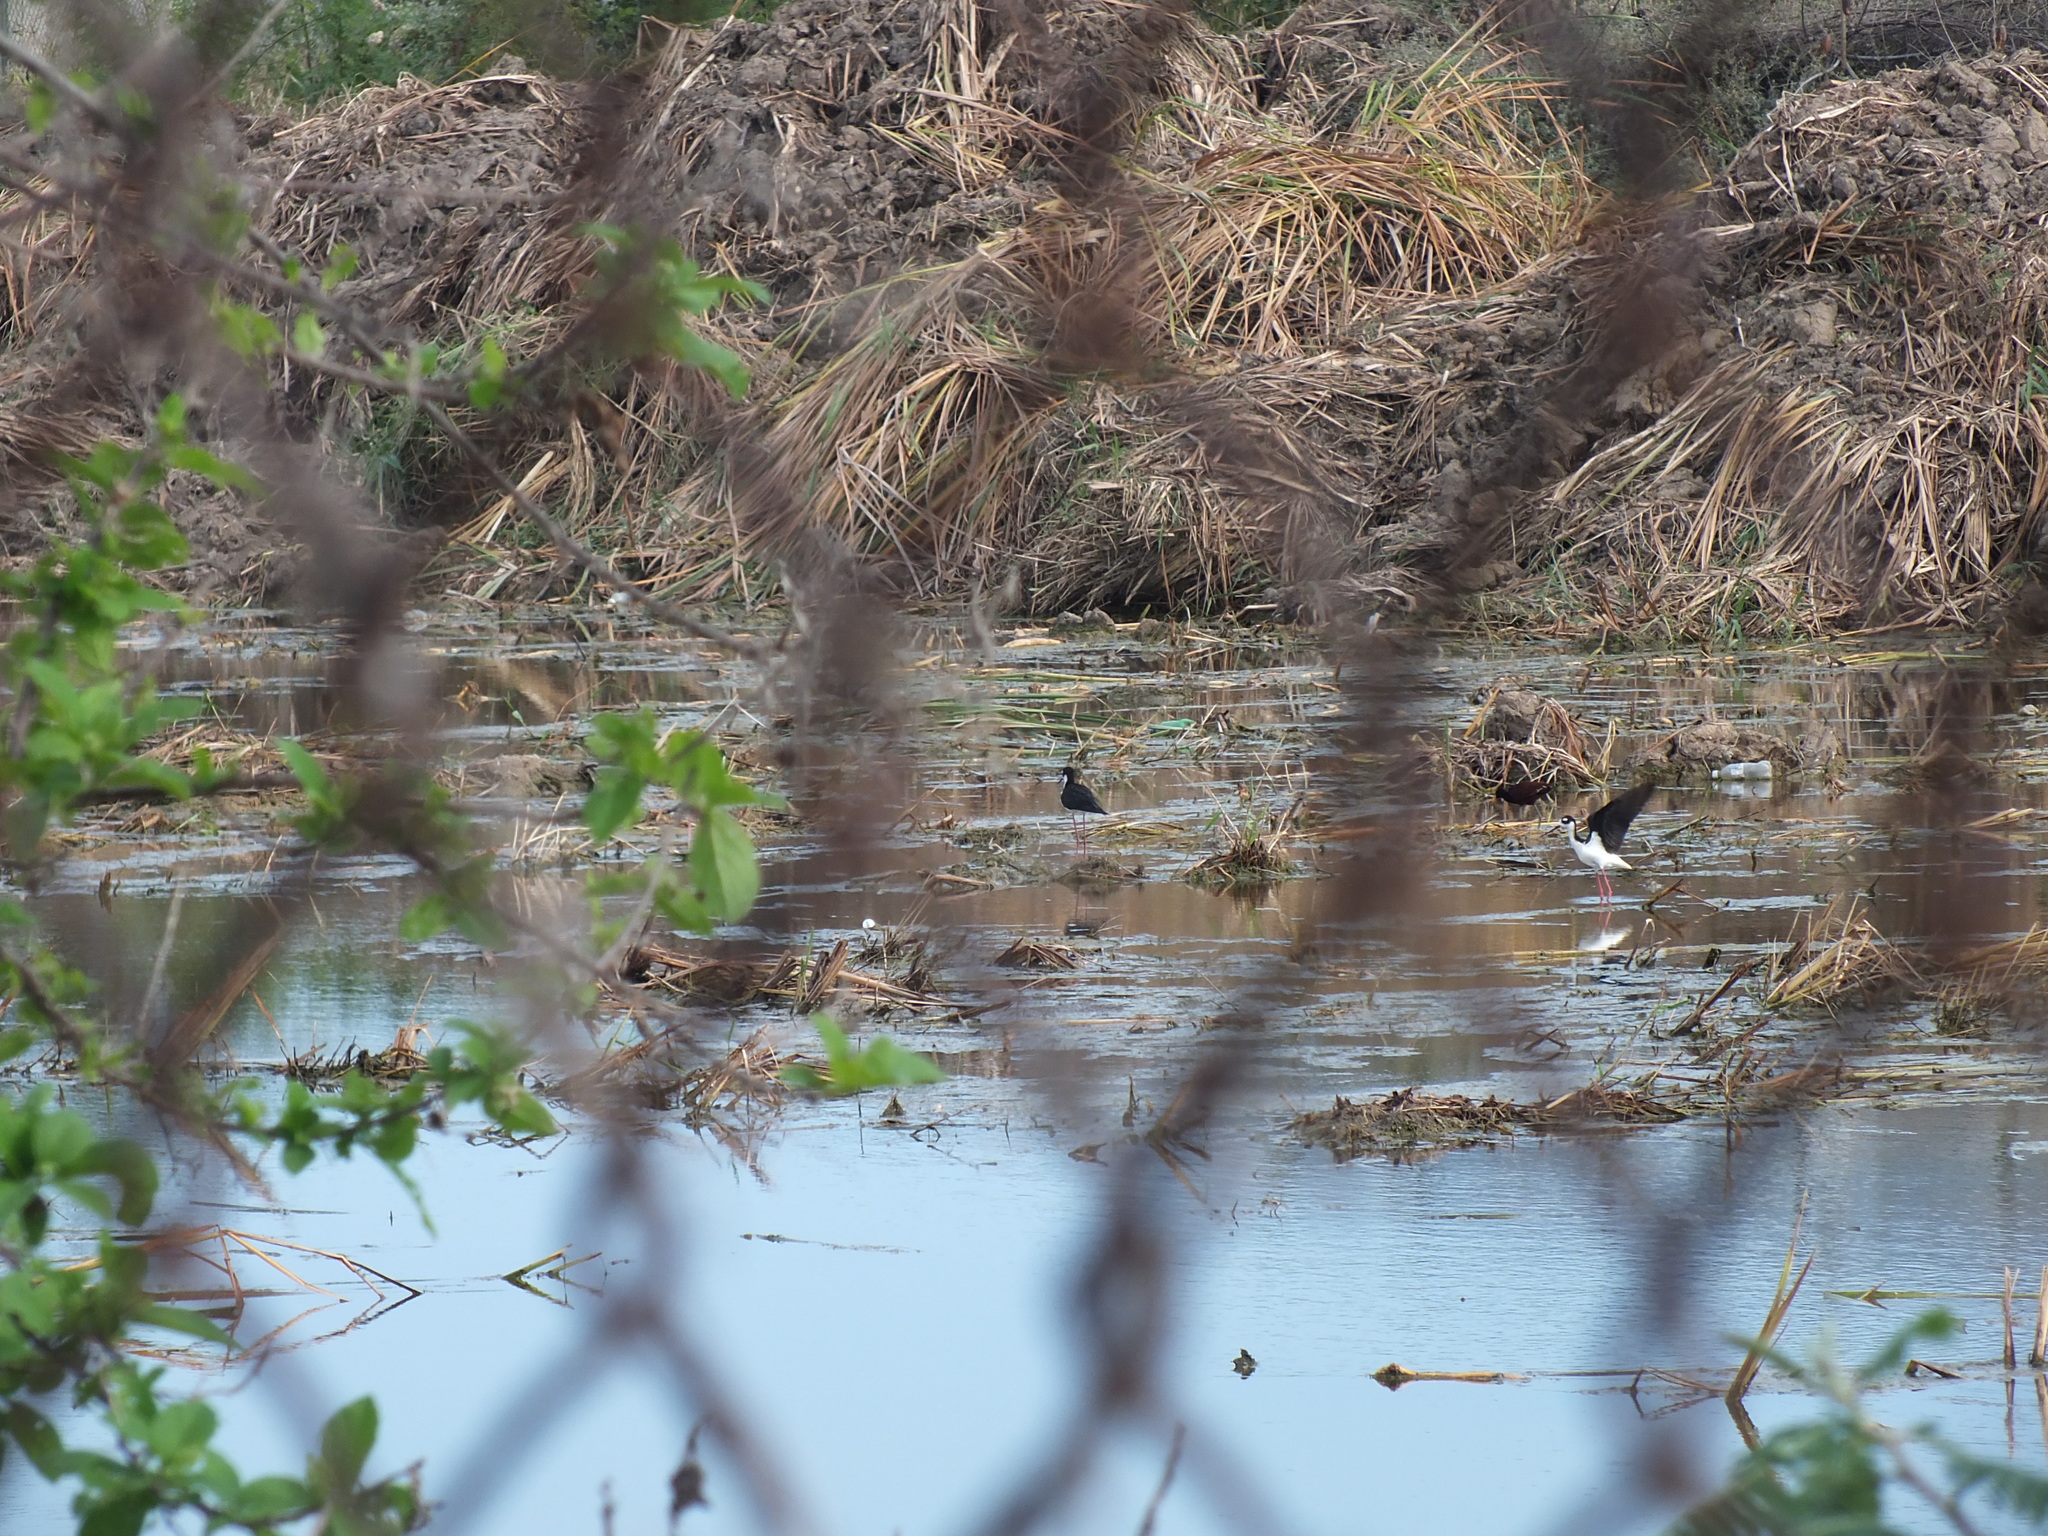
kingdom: Animalia
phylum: Chordata
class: Aves
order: Charadriiformes
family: Recurvirostridae
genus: Himantopus
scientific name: Himantopus mexicanus
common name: Black-necked stilt
